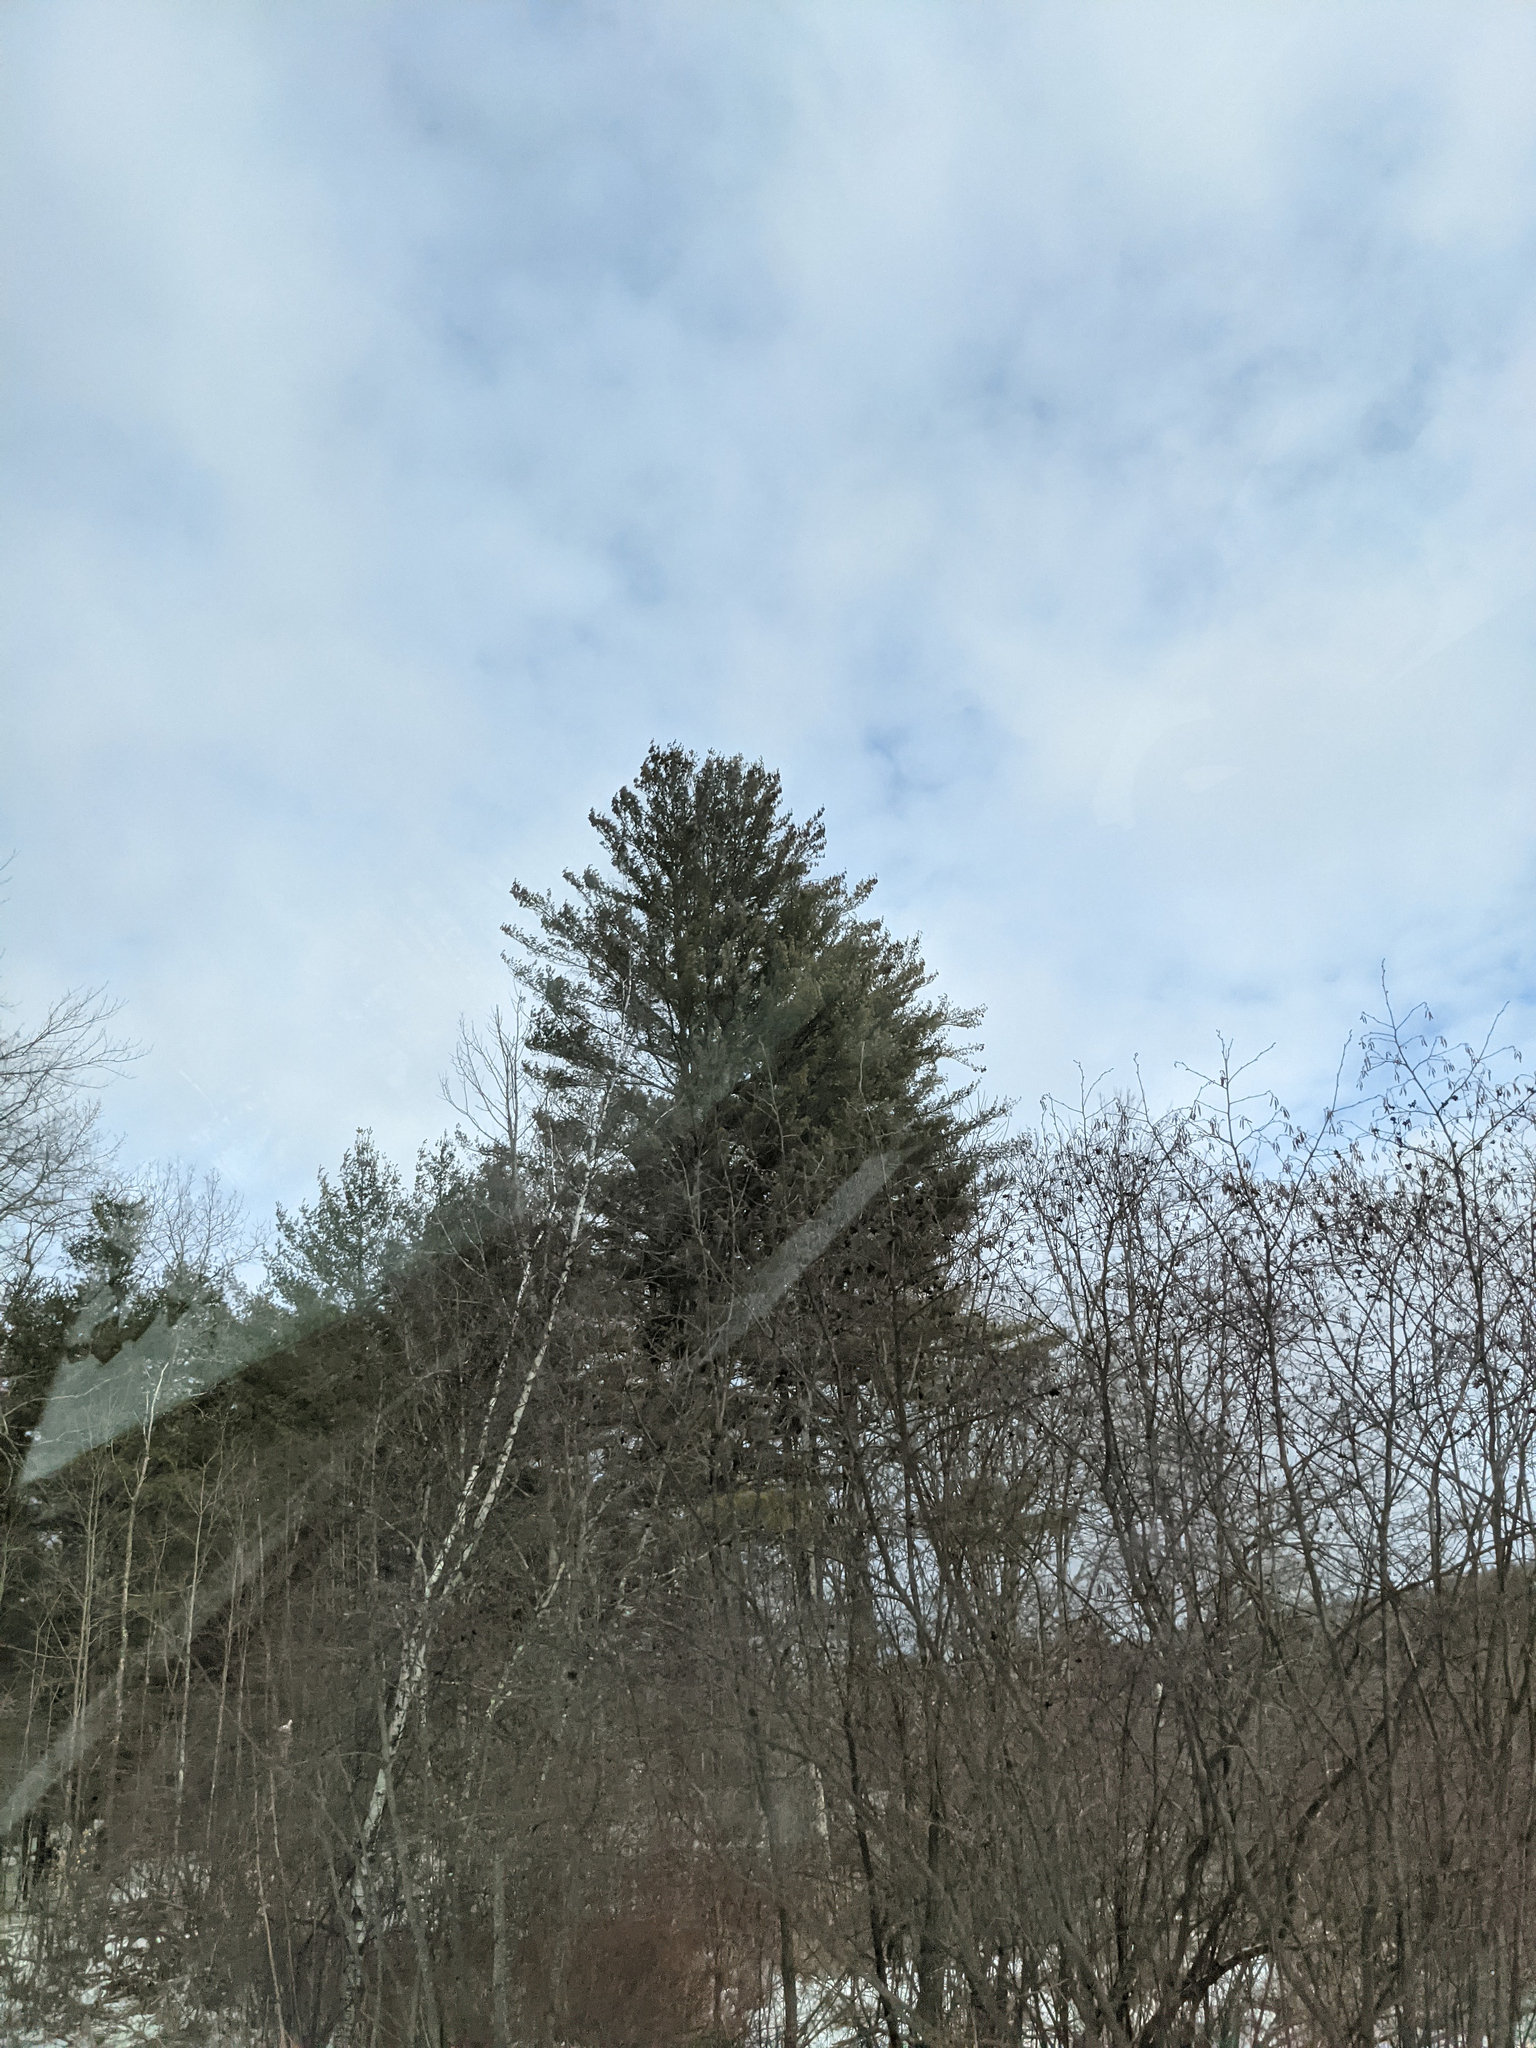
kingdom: Plantae
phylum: Tracheophyta
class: Pinopsida
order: Pinales
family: Pinaceae
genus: Pinus
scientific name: Pinus strobus
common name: Weymouth pine
